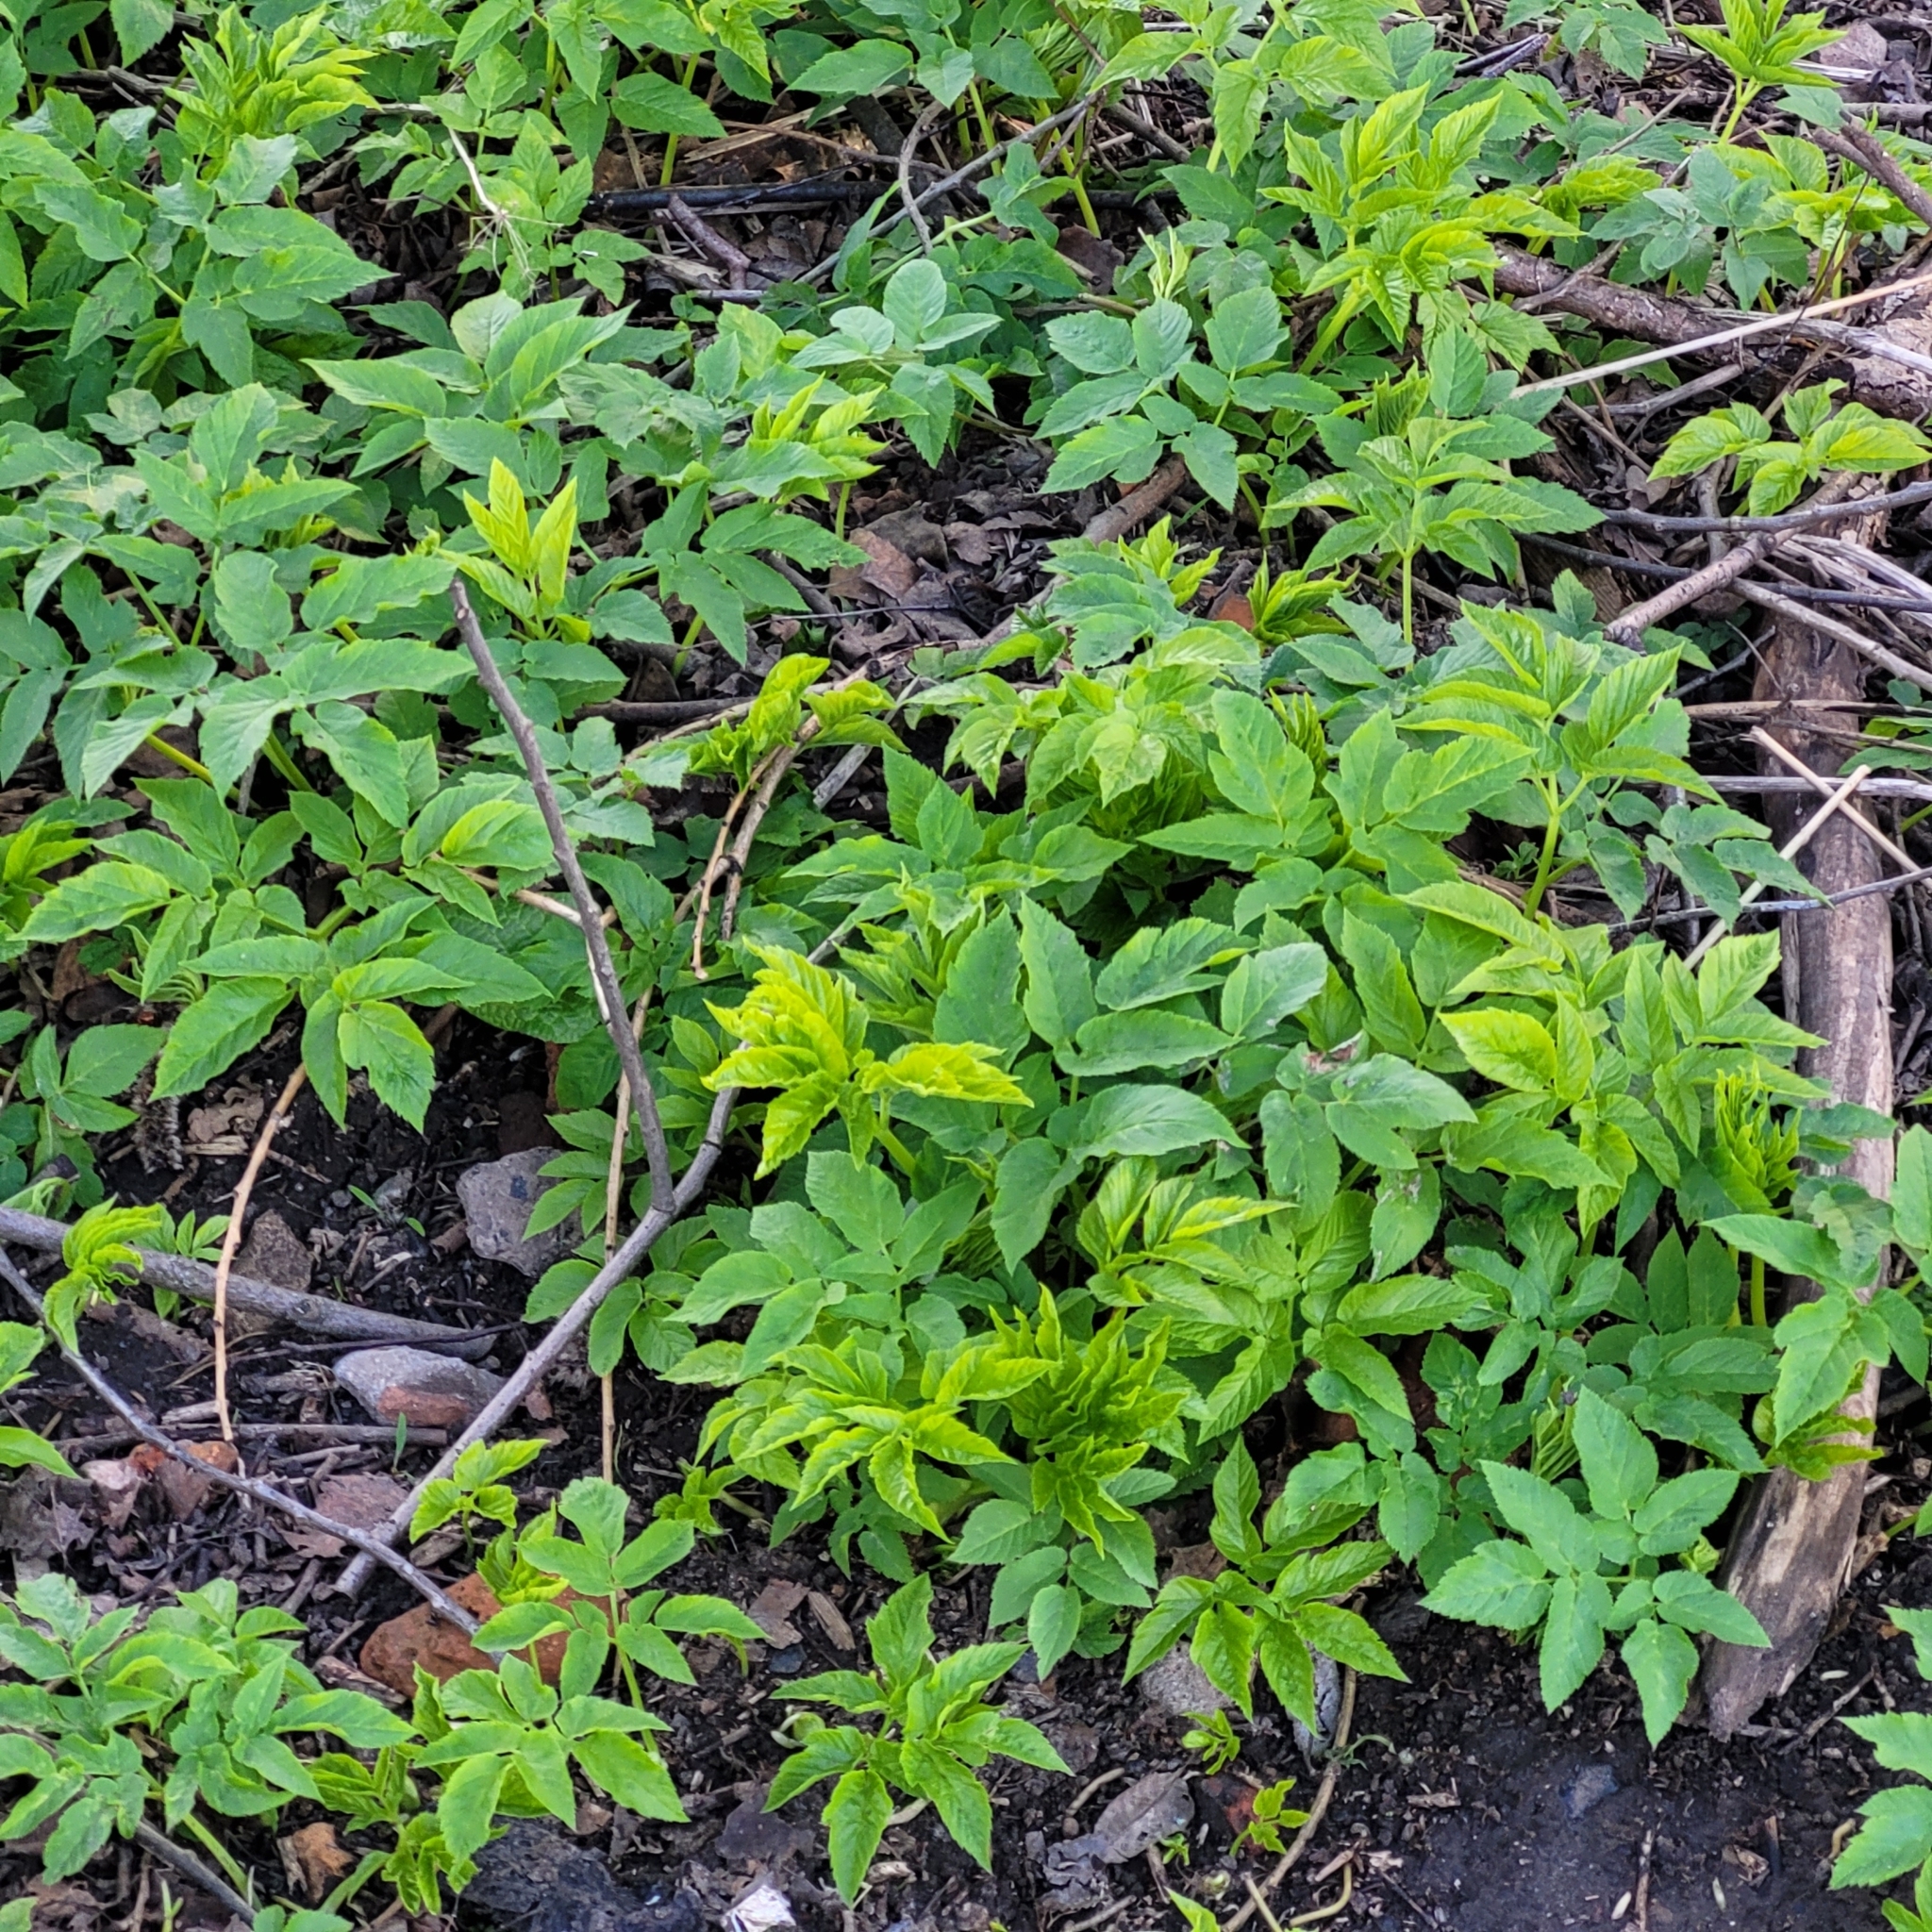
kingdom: Plantae
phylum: Tracheophyta
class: Magnoliopsida
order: Apiales
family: Apiaceae
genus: Aegopodium
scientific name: Aegopodium podagraria
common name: Ground-elder
